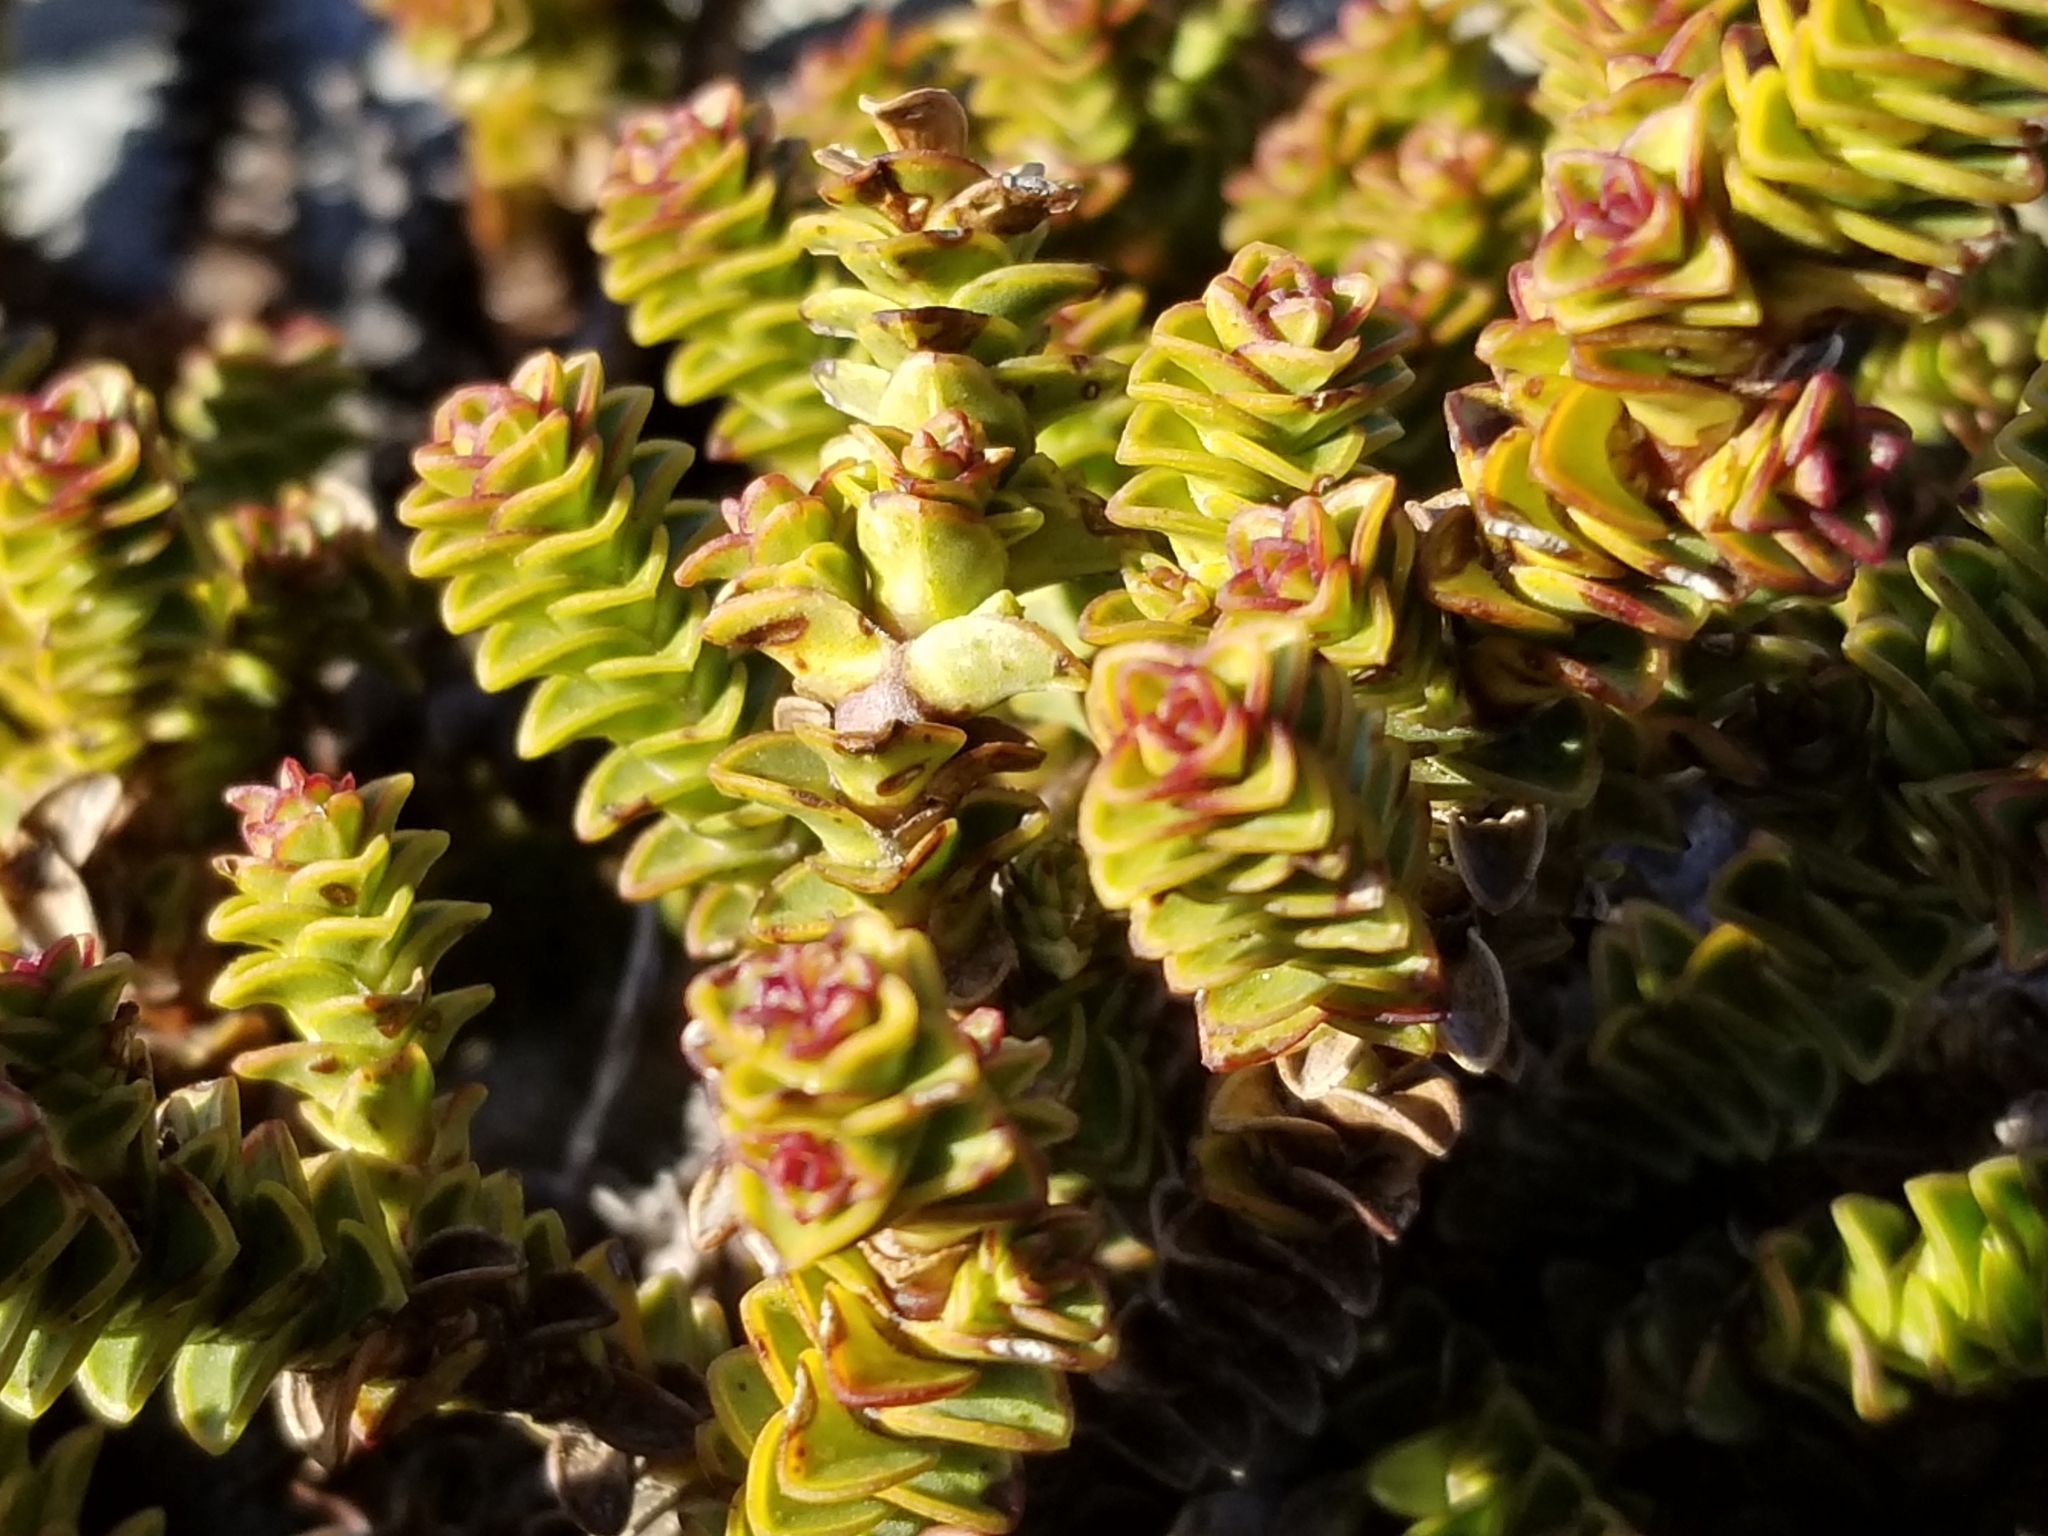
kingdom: Plantae
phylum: Tracheophyta
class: Magnoliopsida
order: Lamiales
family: Plantaginaceae
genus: Veronica
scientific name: Veronica epacridea
